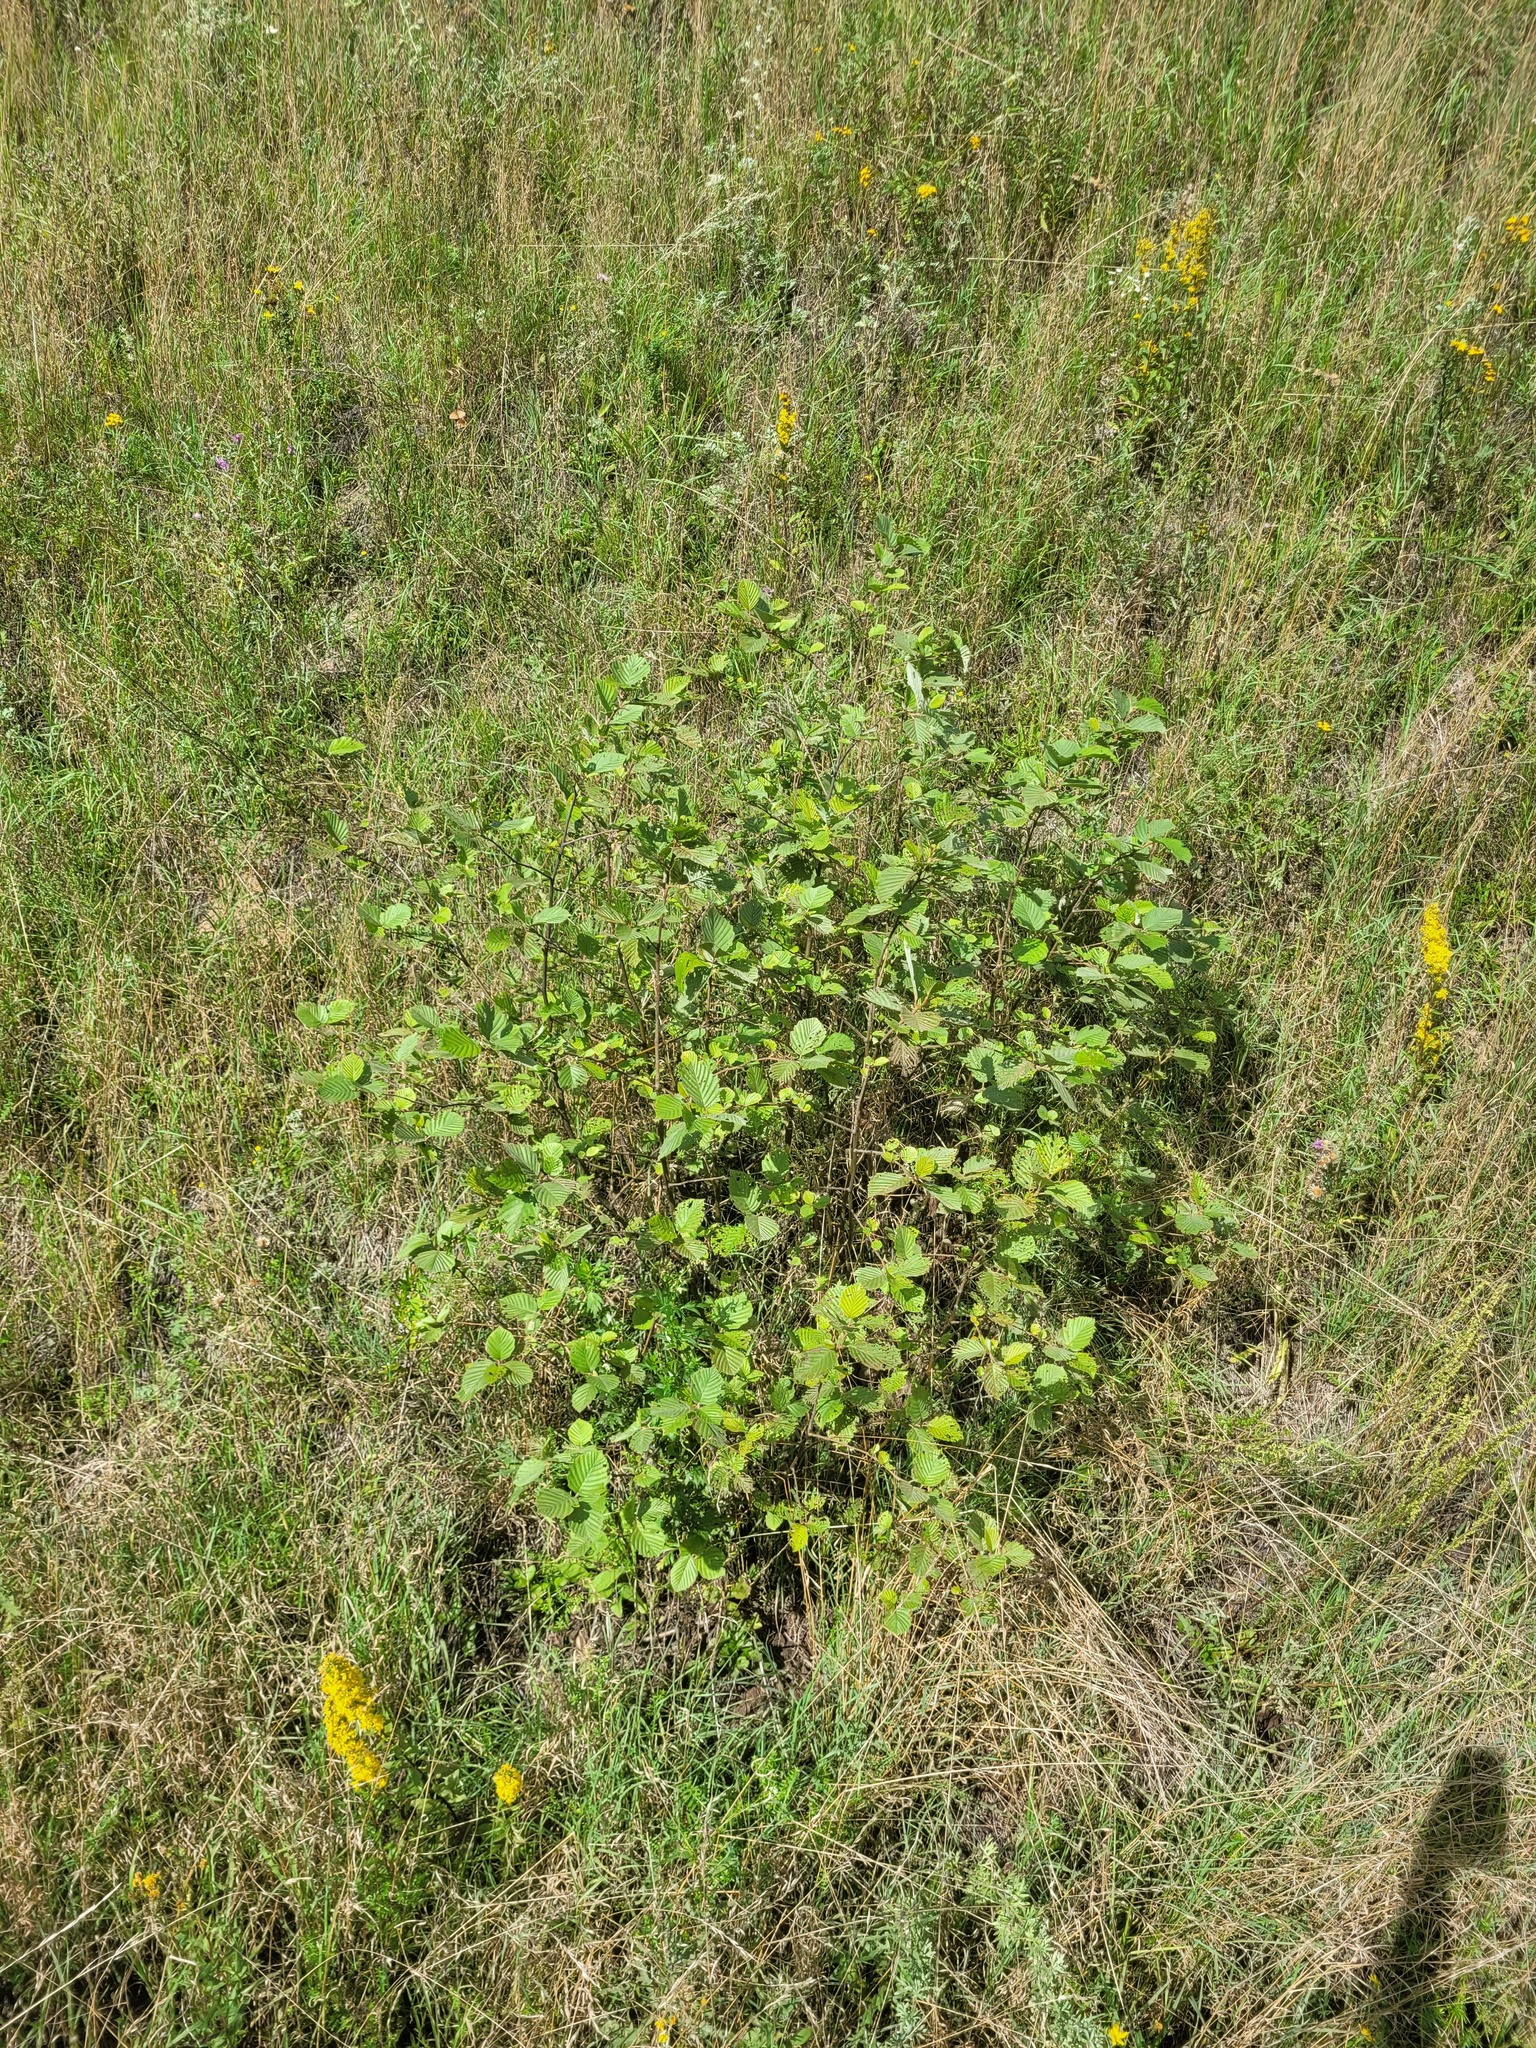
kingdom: Plantae
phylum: Tracheophyta
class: Magnoliopsida
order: Fagales
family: Betulaceae
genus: Alnus
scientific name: Alnus incana
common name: Grey alder
